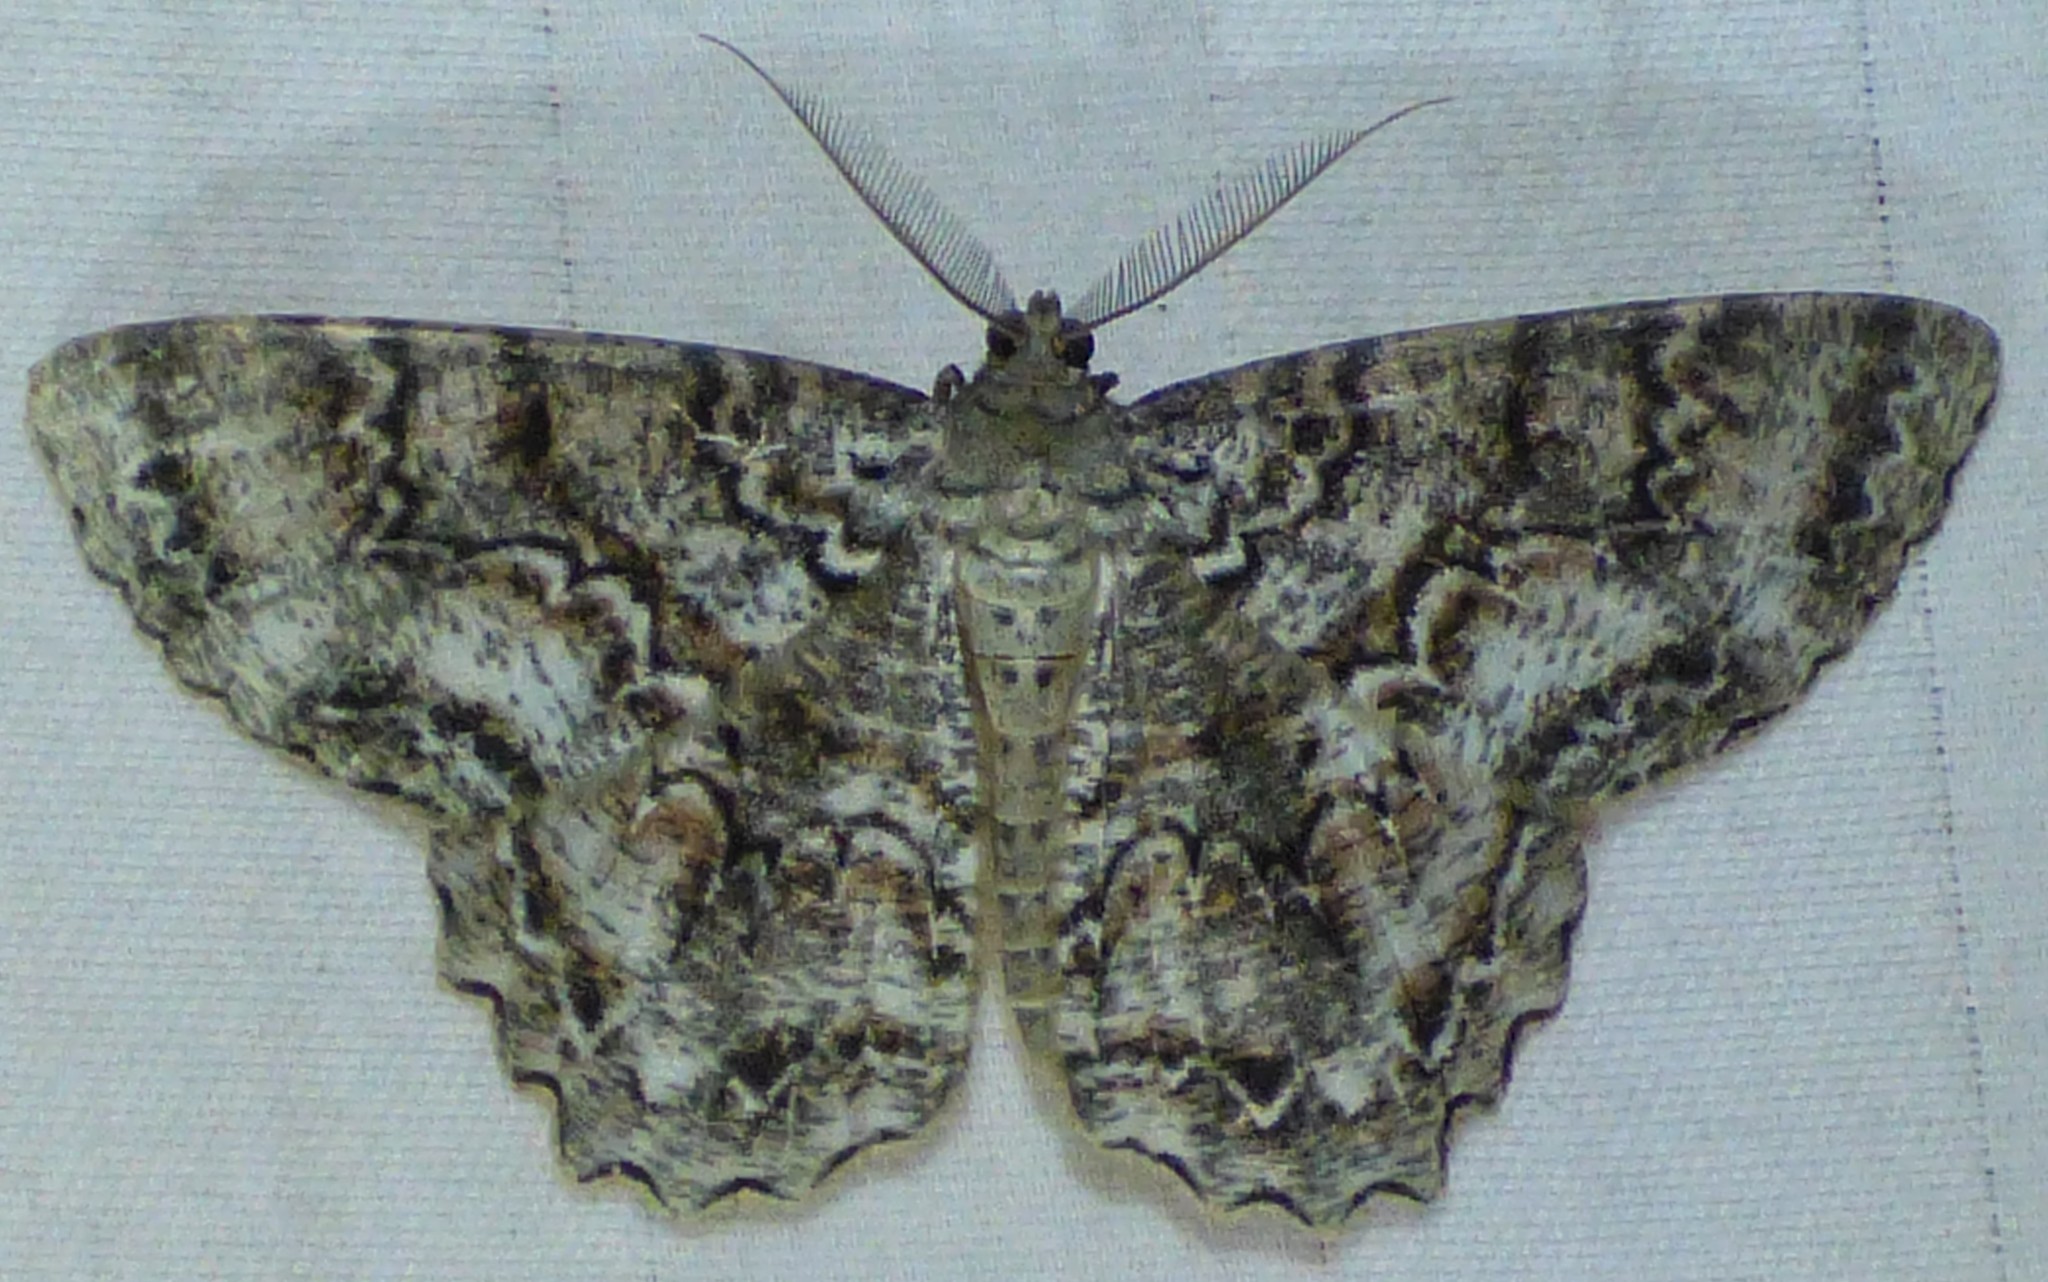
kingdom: Animalia
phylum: Arthropoda
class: Insecta
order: Lepidoptera
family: Geometridae
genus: Epimecis
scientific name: Epimecis hortaria
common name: Tulip-tree beauty
